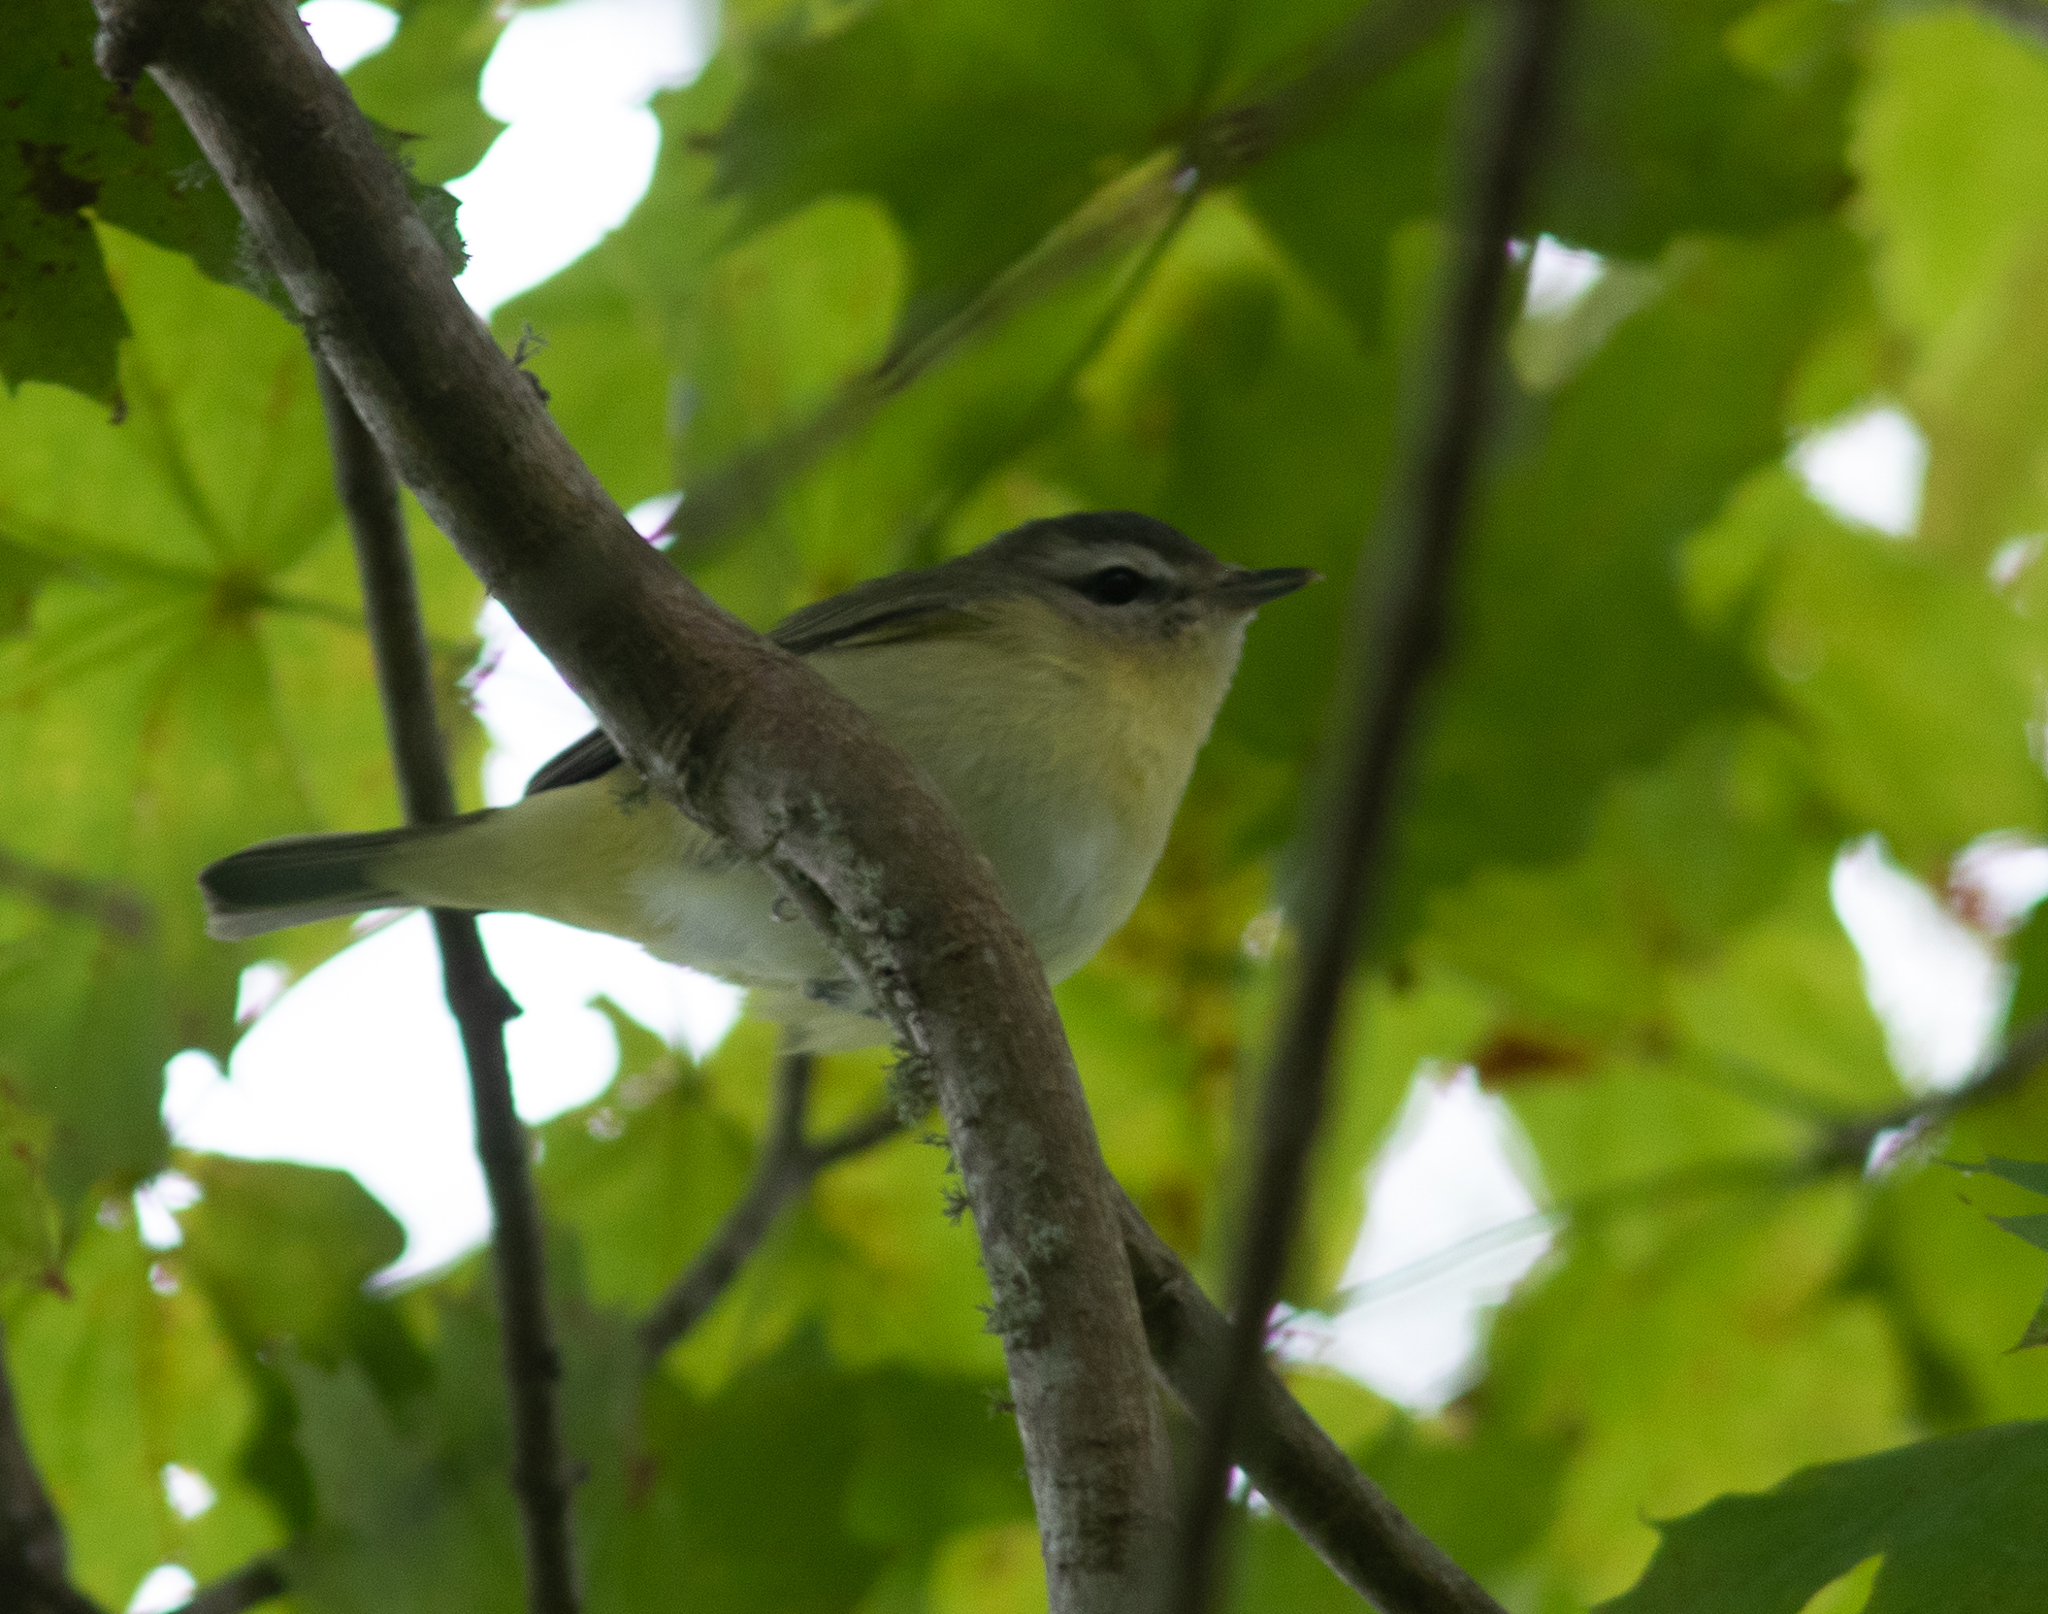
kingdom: Animalia
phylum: Chordata
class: Aves
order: Passeriformes
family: Vireonidae
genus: Vireo
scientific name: Vireo philadelphicus
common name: Philadelphia vireo
